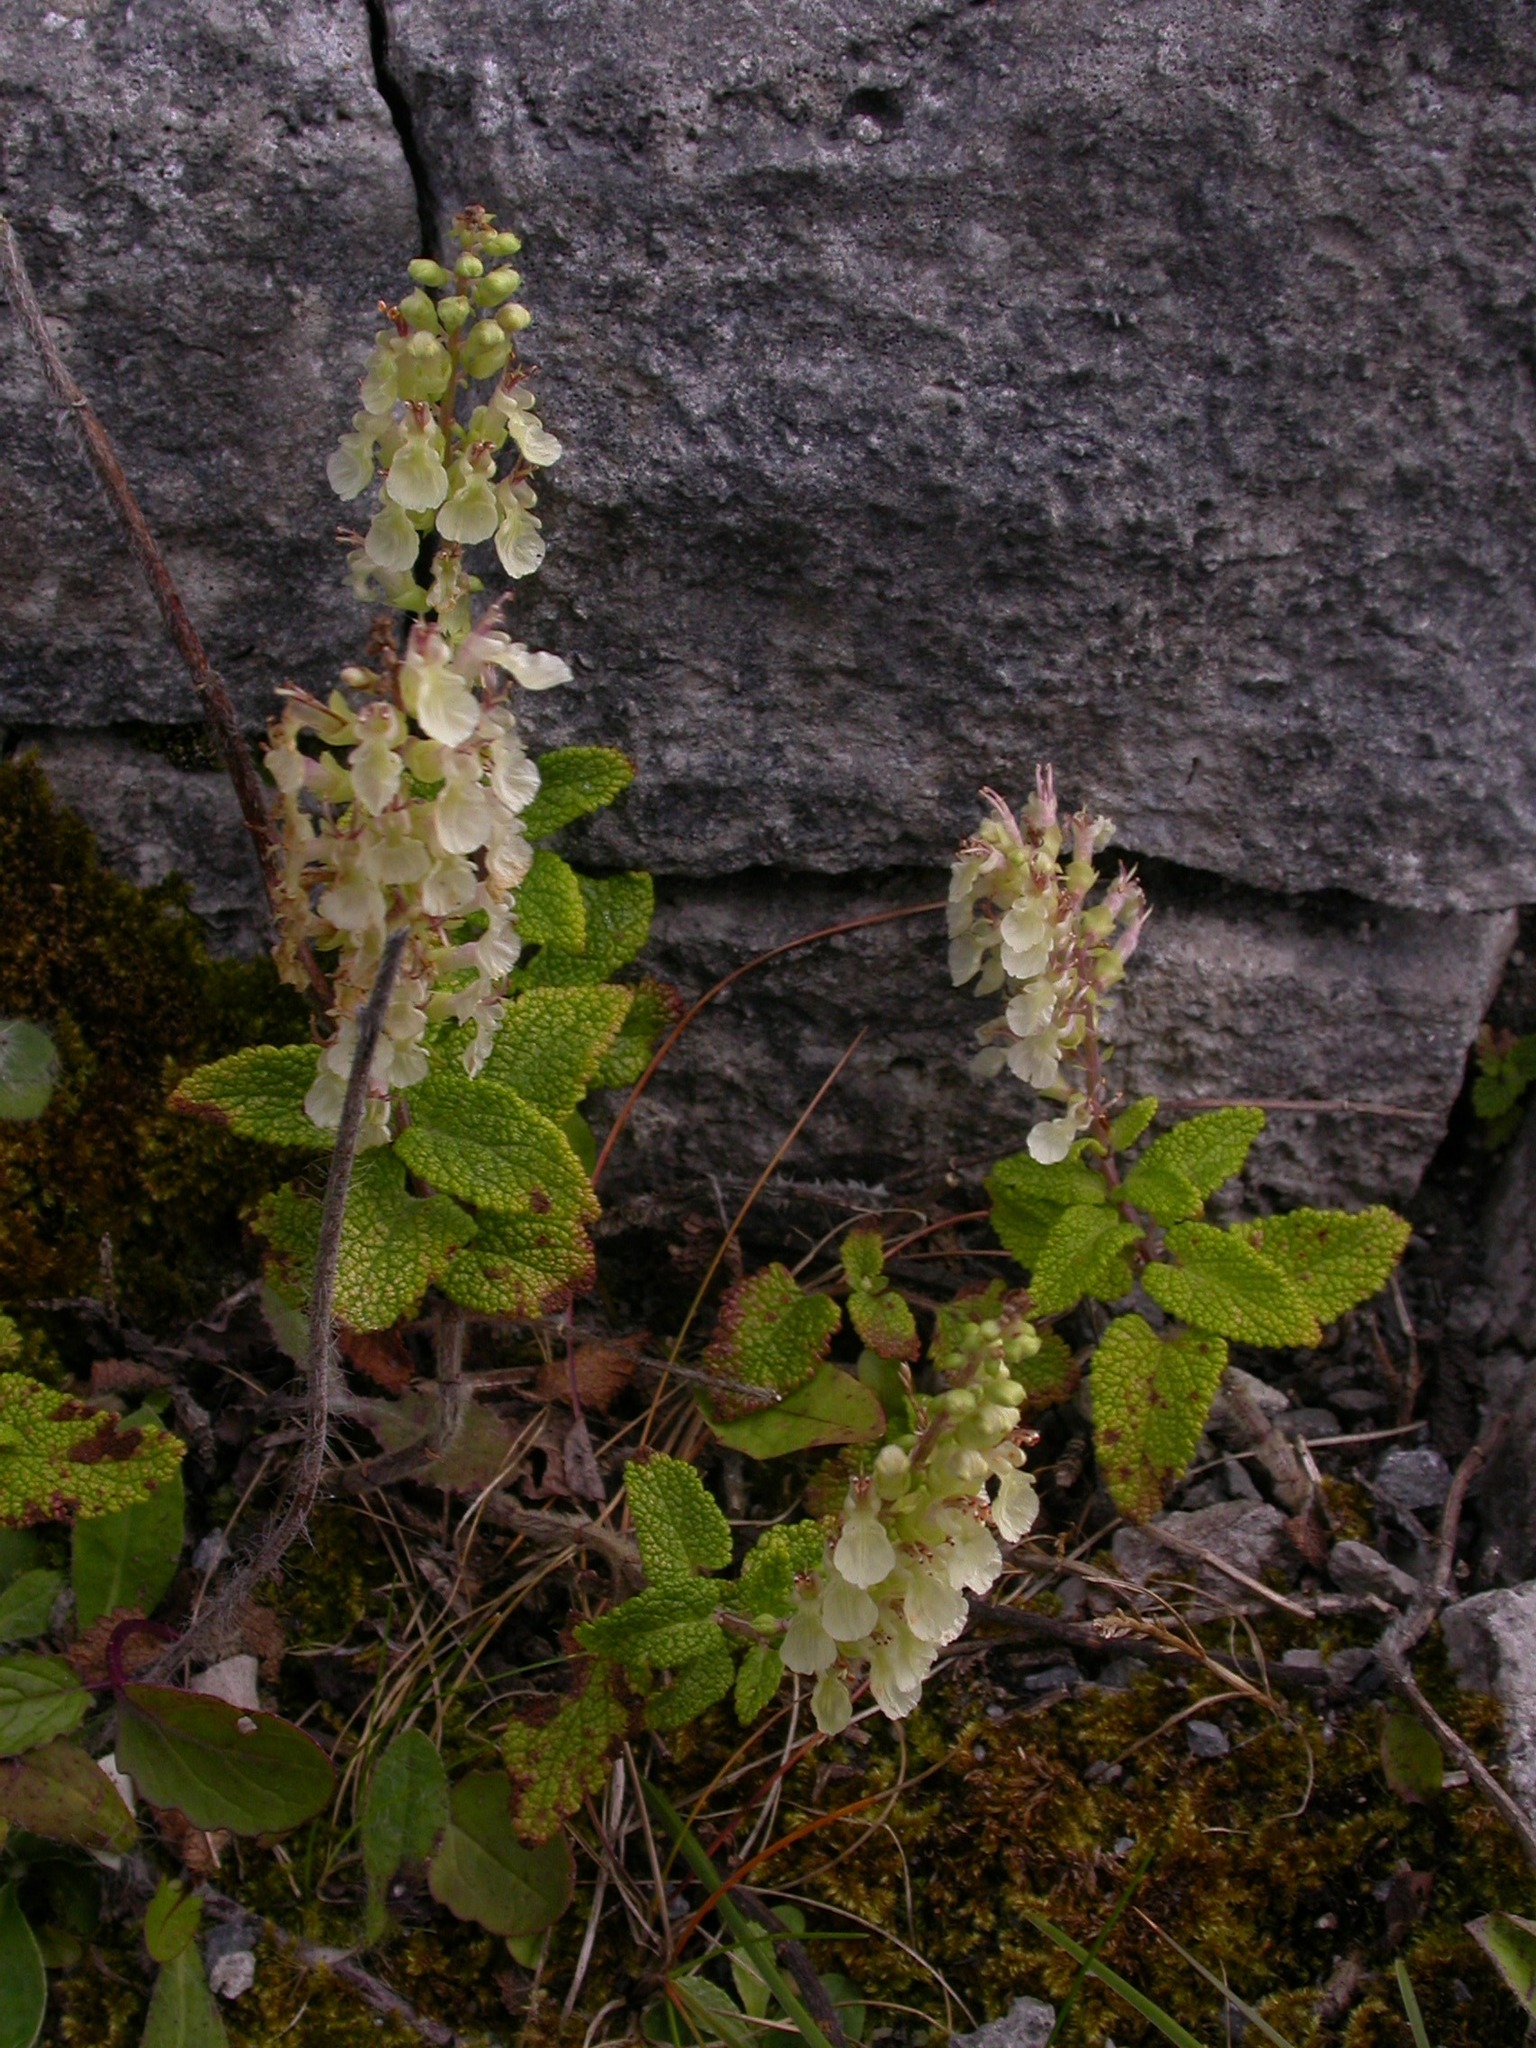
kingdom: Plantae
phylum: Tracheophyta
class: Magnoliopsida
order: Lamiales
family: Lamiaceae
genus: Teucrium
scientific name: Teucrium scorodonia
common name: Woodland germander
